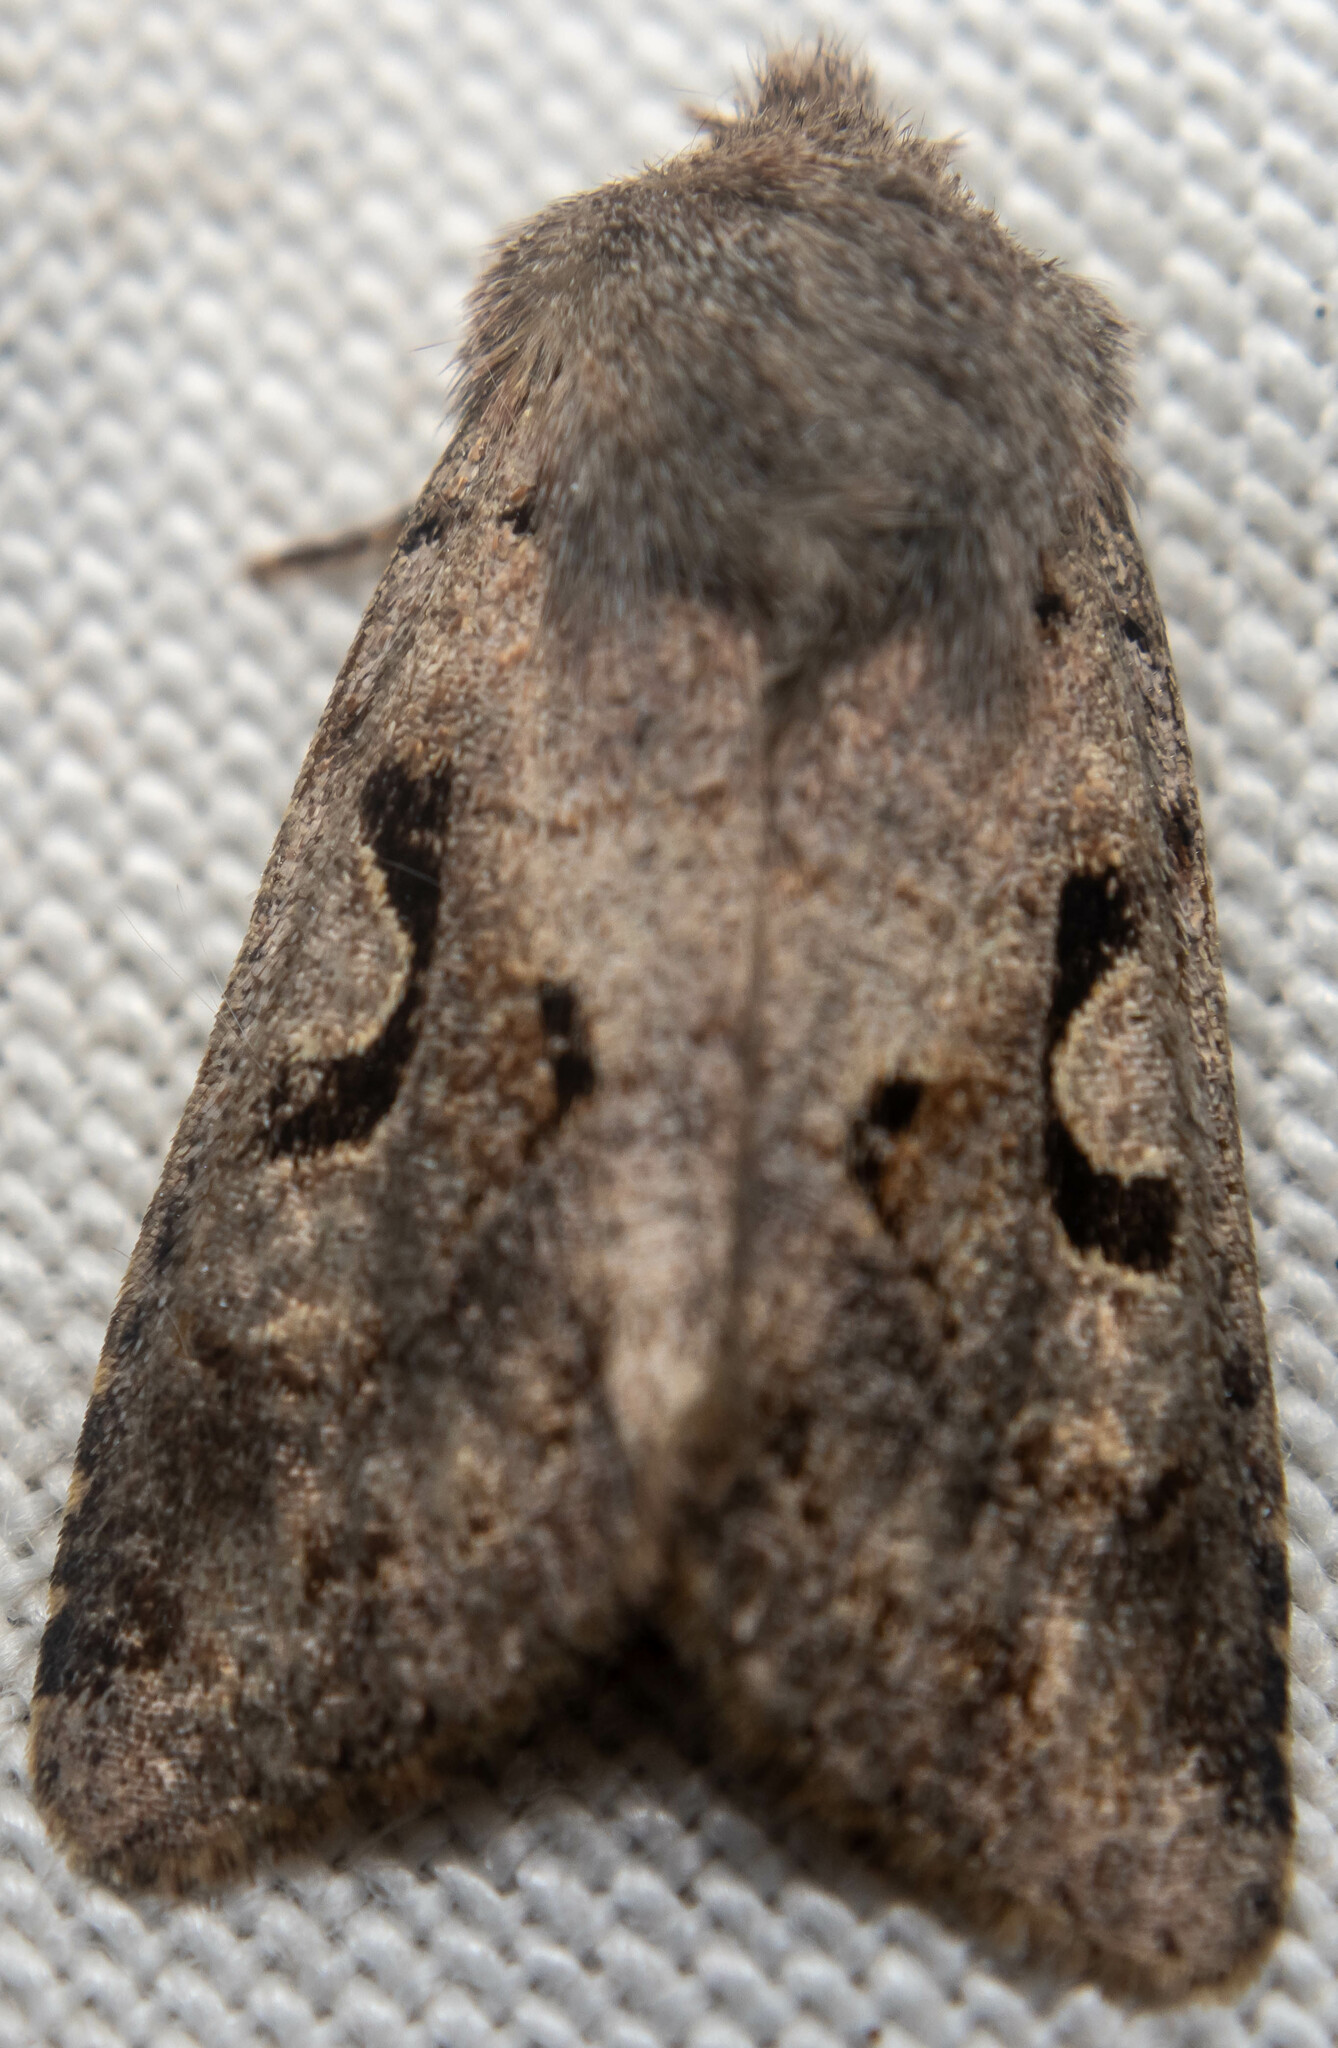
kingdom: Animalia
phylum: Arthropoda
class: Insecta
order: Lepidoptera
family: Noctuidae
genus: Orthosia
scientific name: Orthosia gothica
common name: Hebrew character
